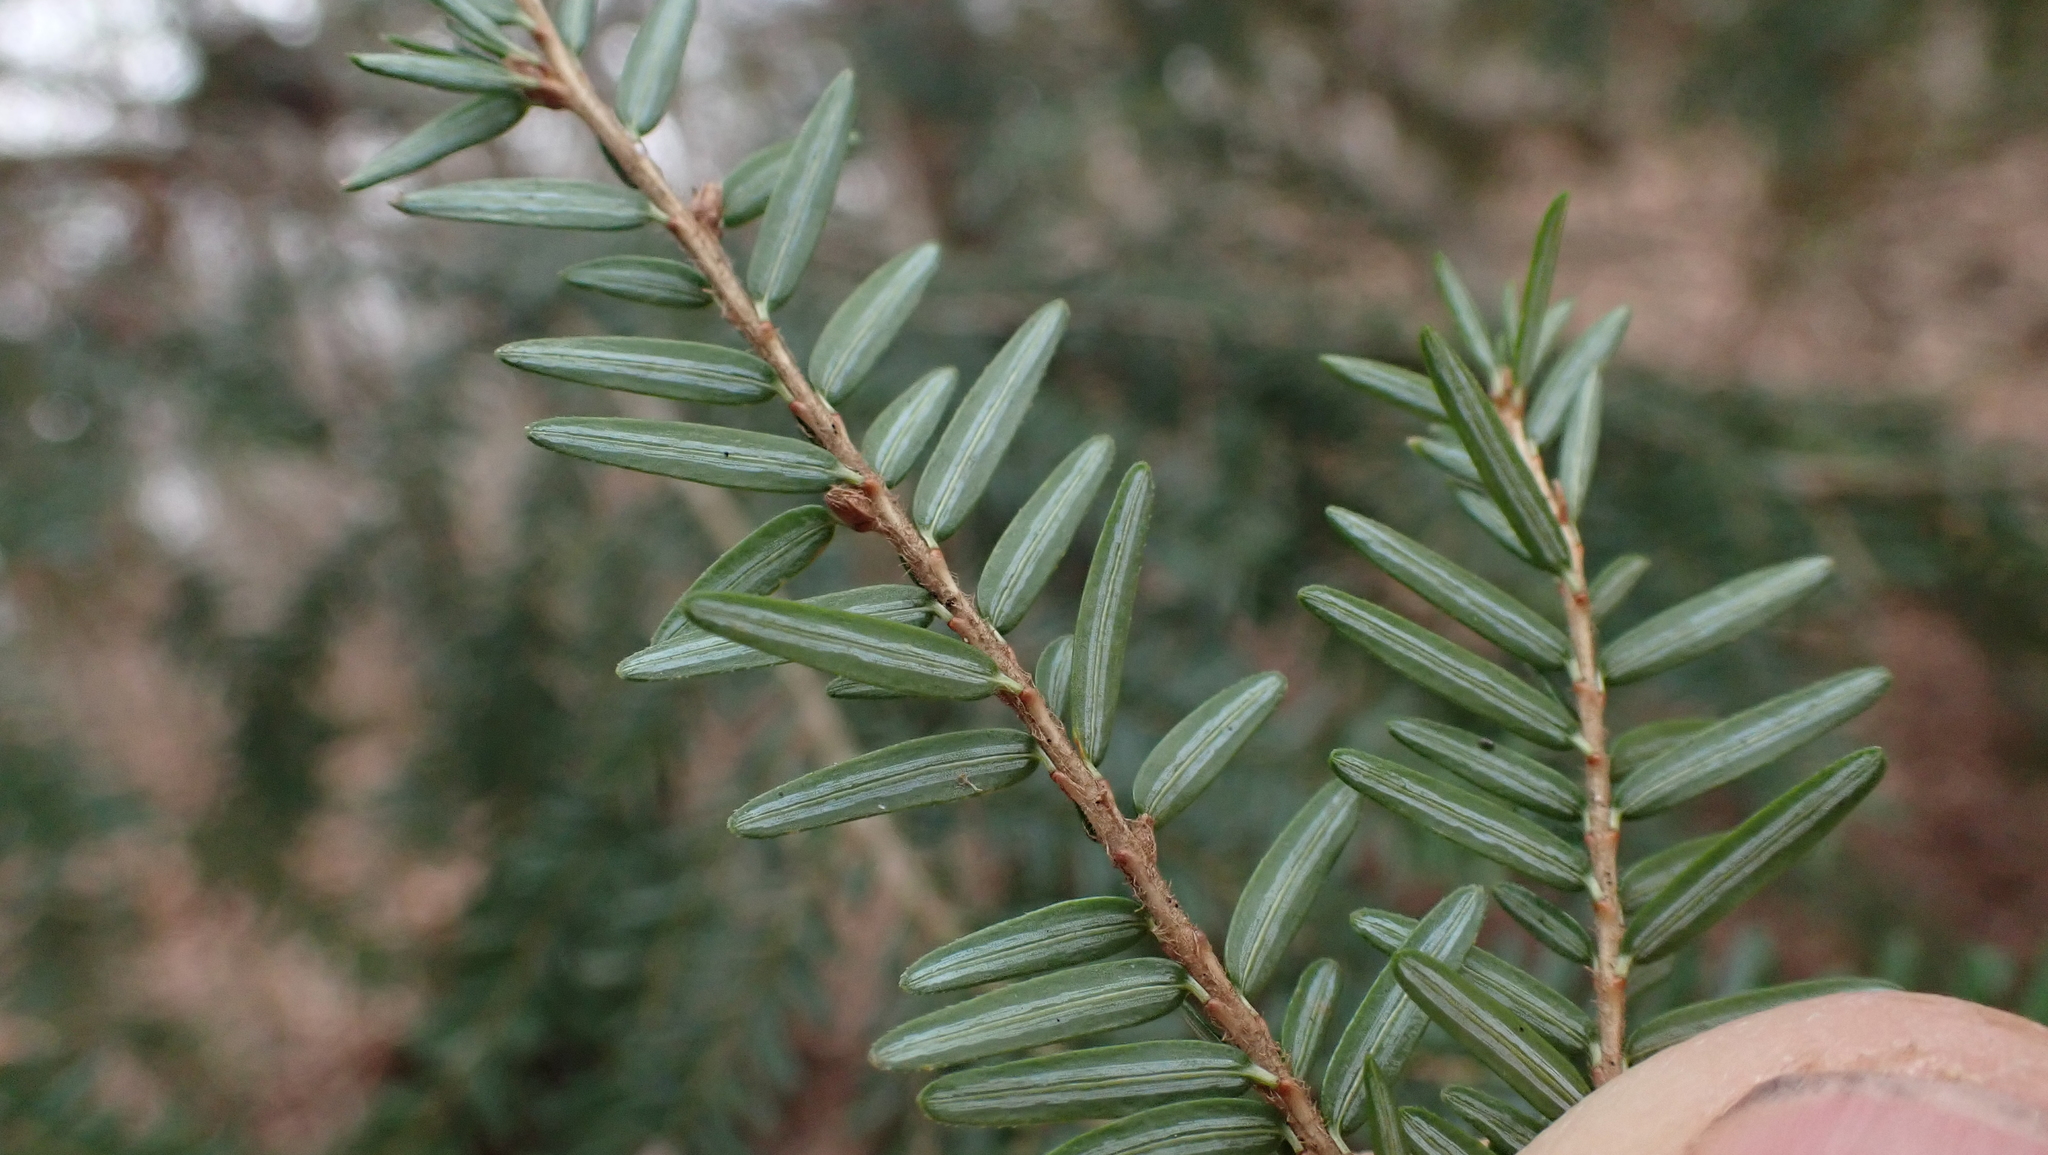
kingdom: Plantae
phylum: Tracheophyta
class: Pinopsida
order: Pinales
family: Pinaceae
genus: Tsuga
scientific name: Tsuga canadensis
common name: Eastern hemlock
